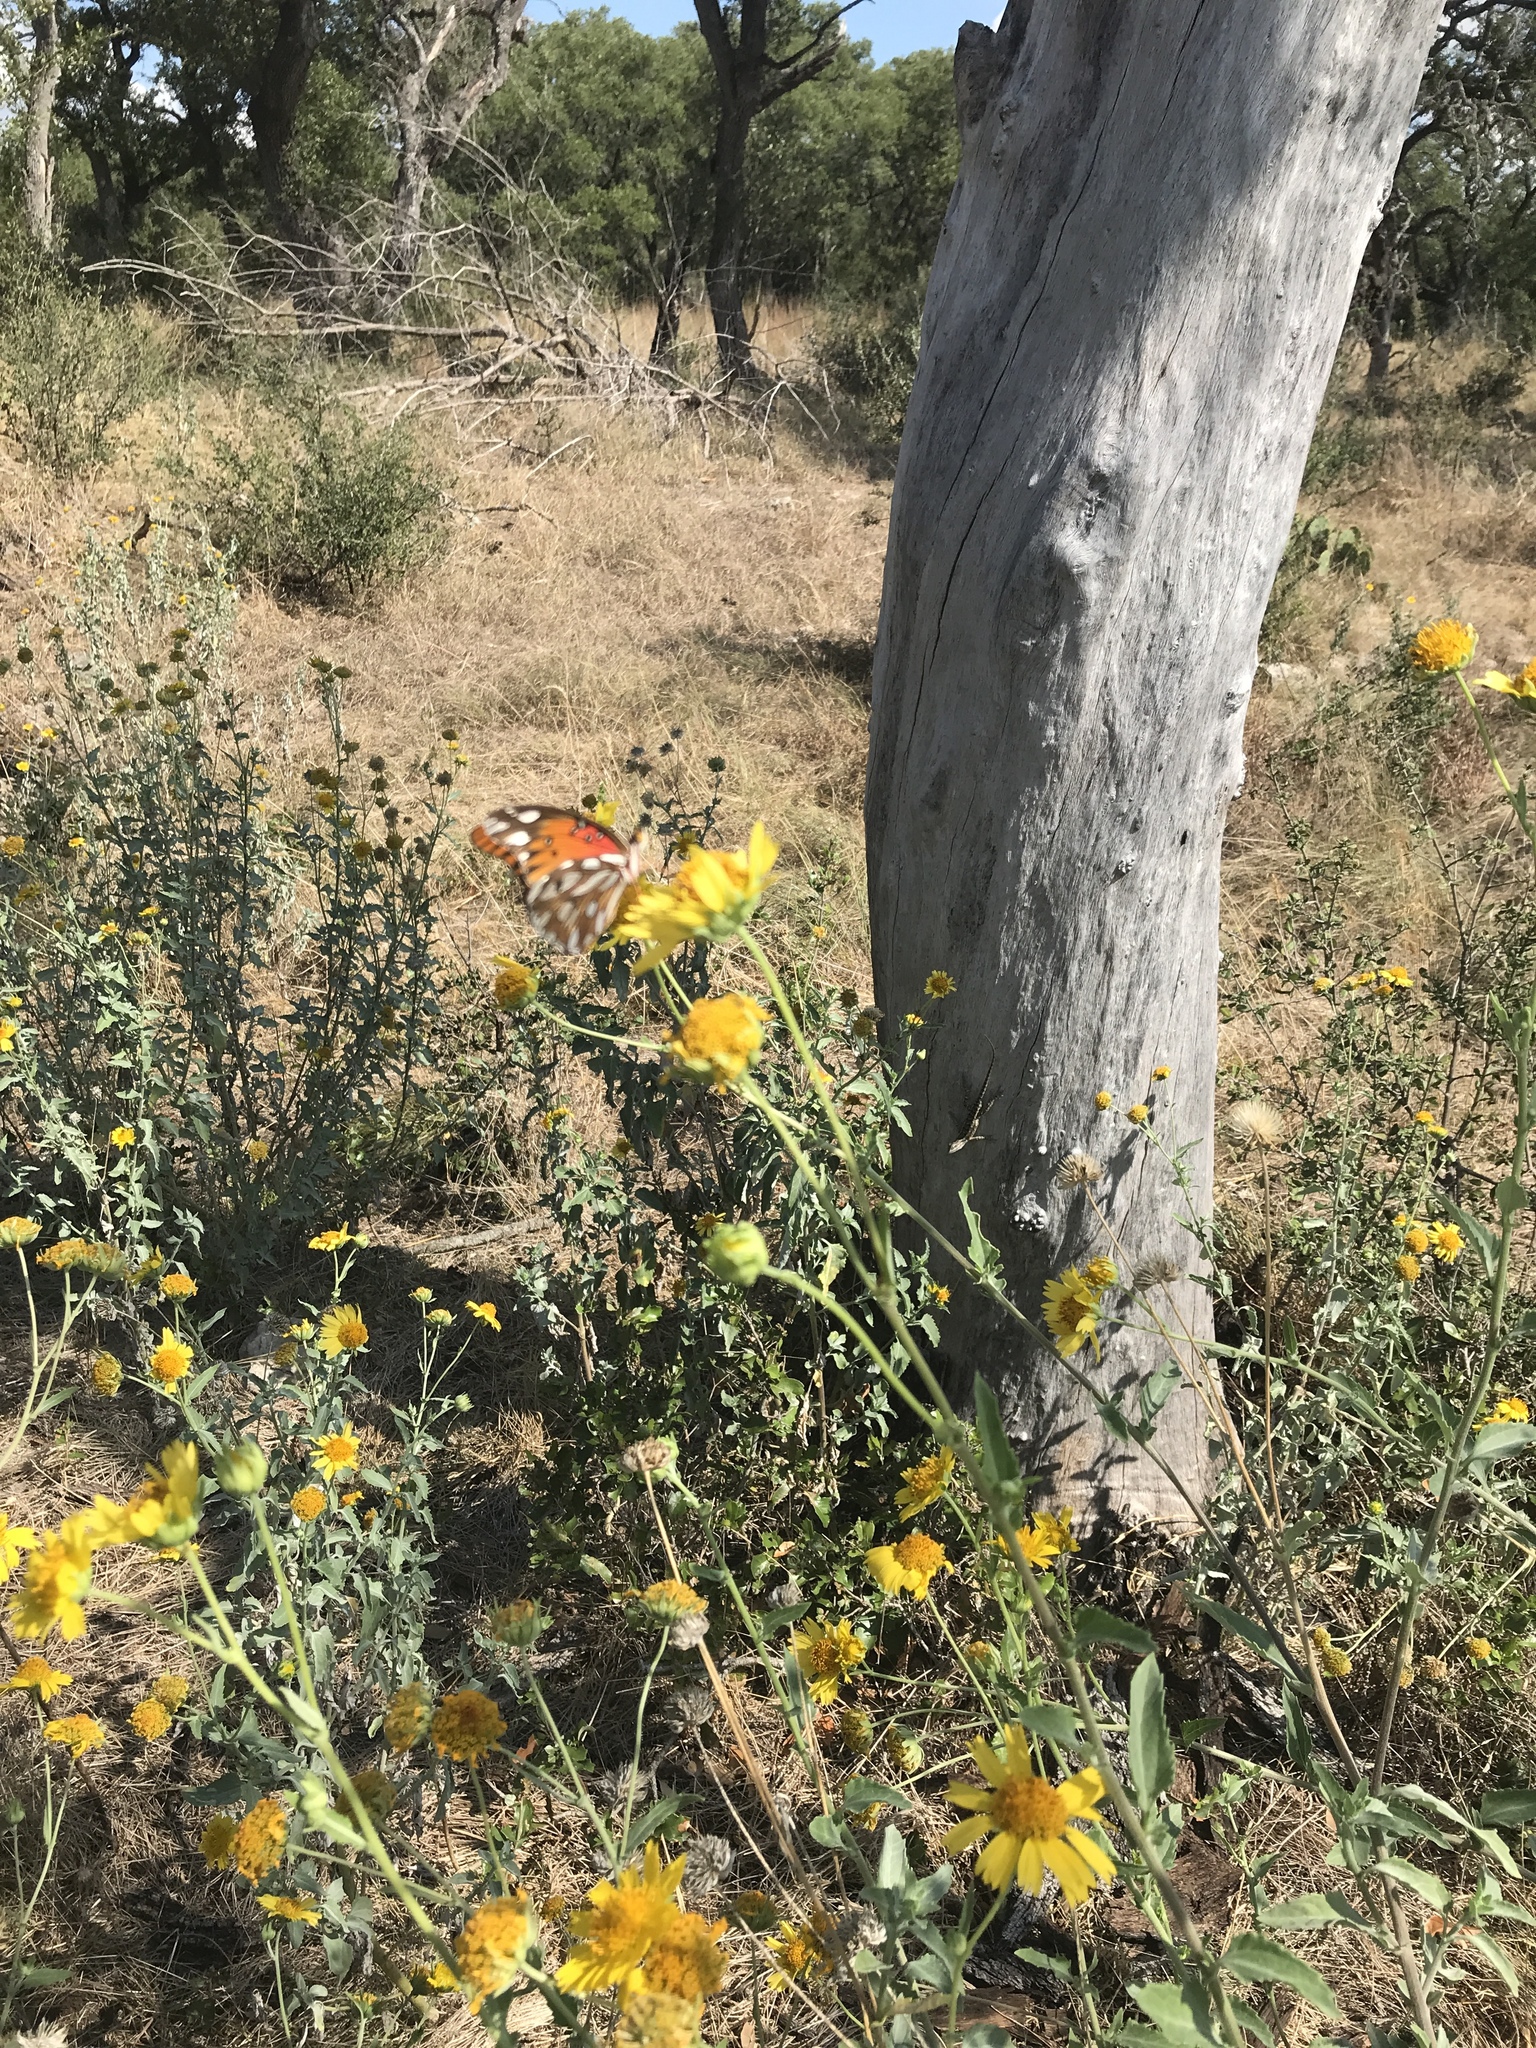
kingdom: Animalia
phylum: Arthropoda
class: Insecta
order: Lepidoptera
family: Nymphalidae
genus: Dione
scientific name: Dione vanillae
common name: Gulf fritillary
